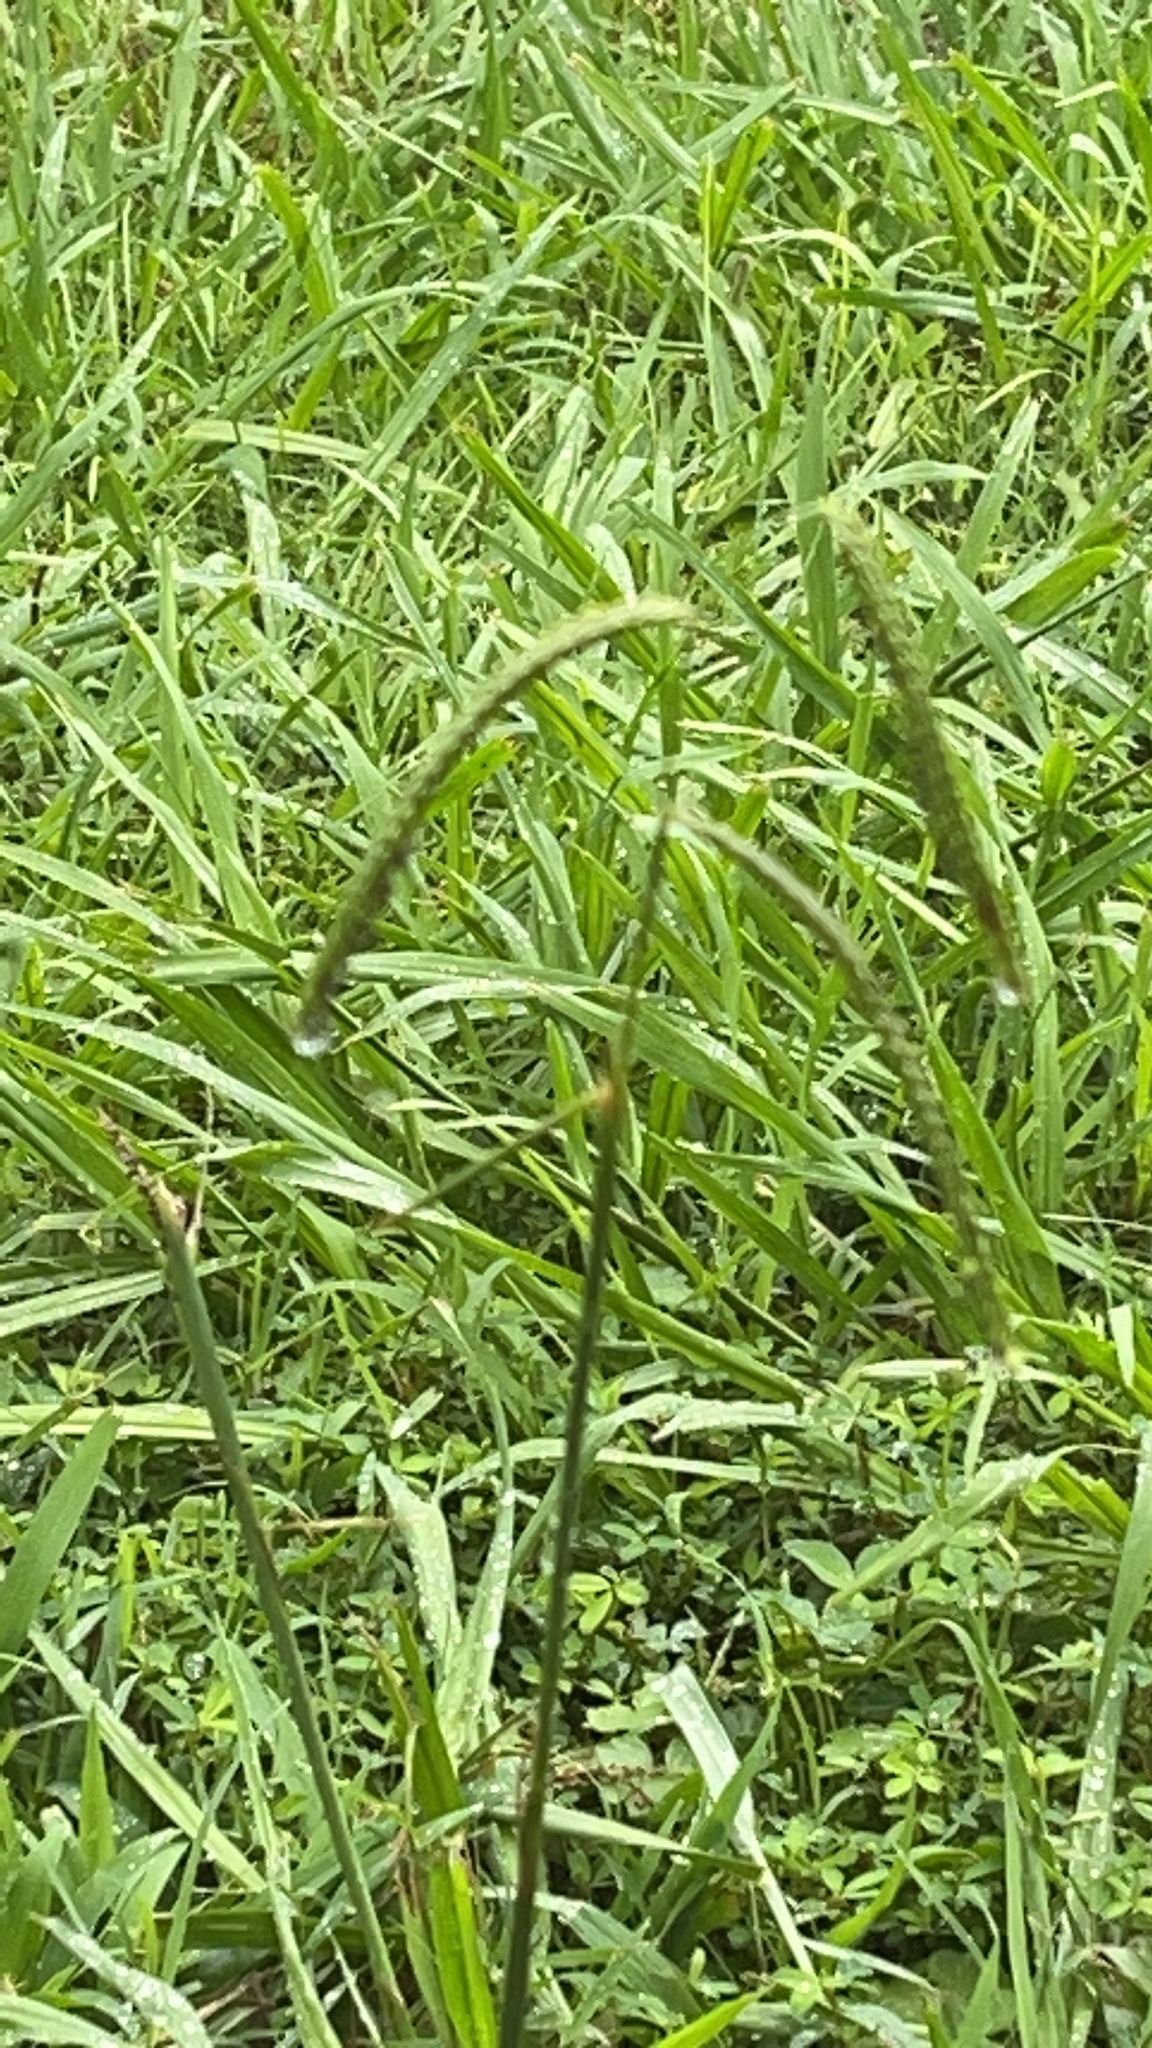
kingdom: Plantae
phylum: Tracheophyta
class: Liliopsida
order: Poales
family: Poaceae
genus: Paspalum
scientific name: Paspalum dilatatum
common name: Dallisgrass
